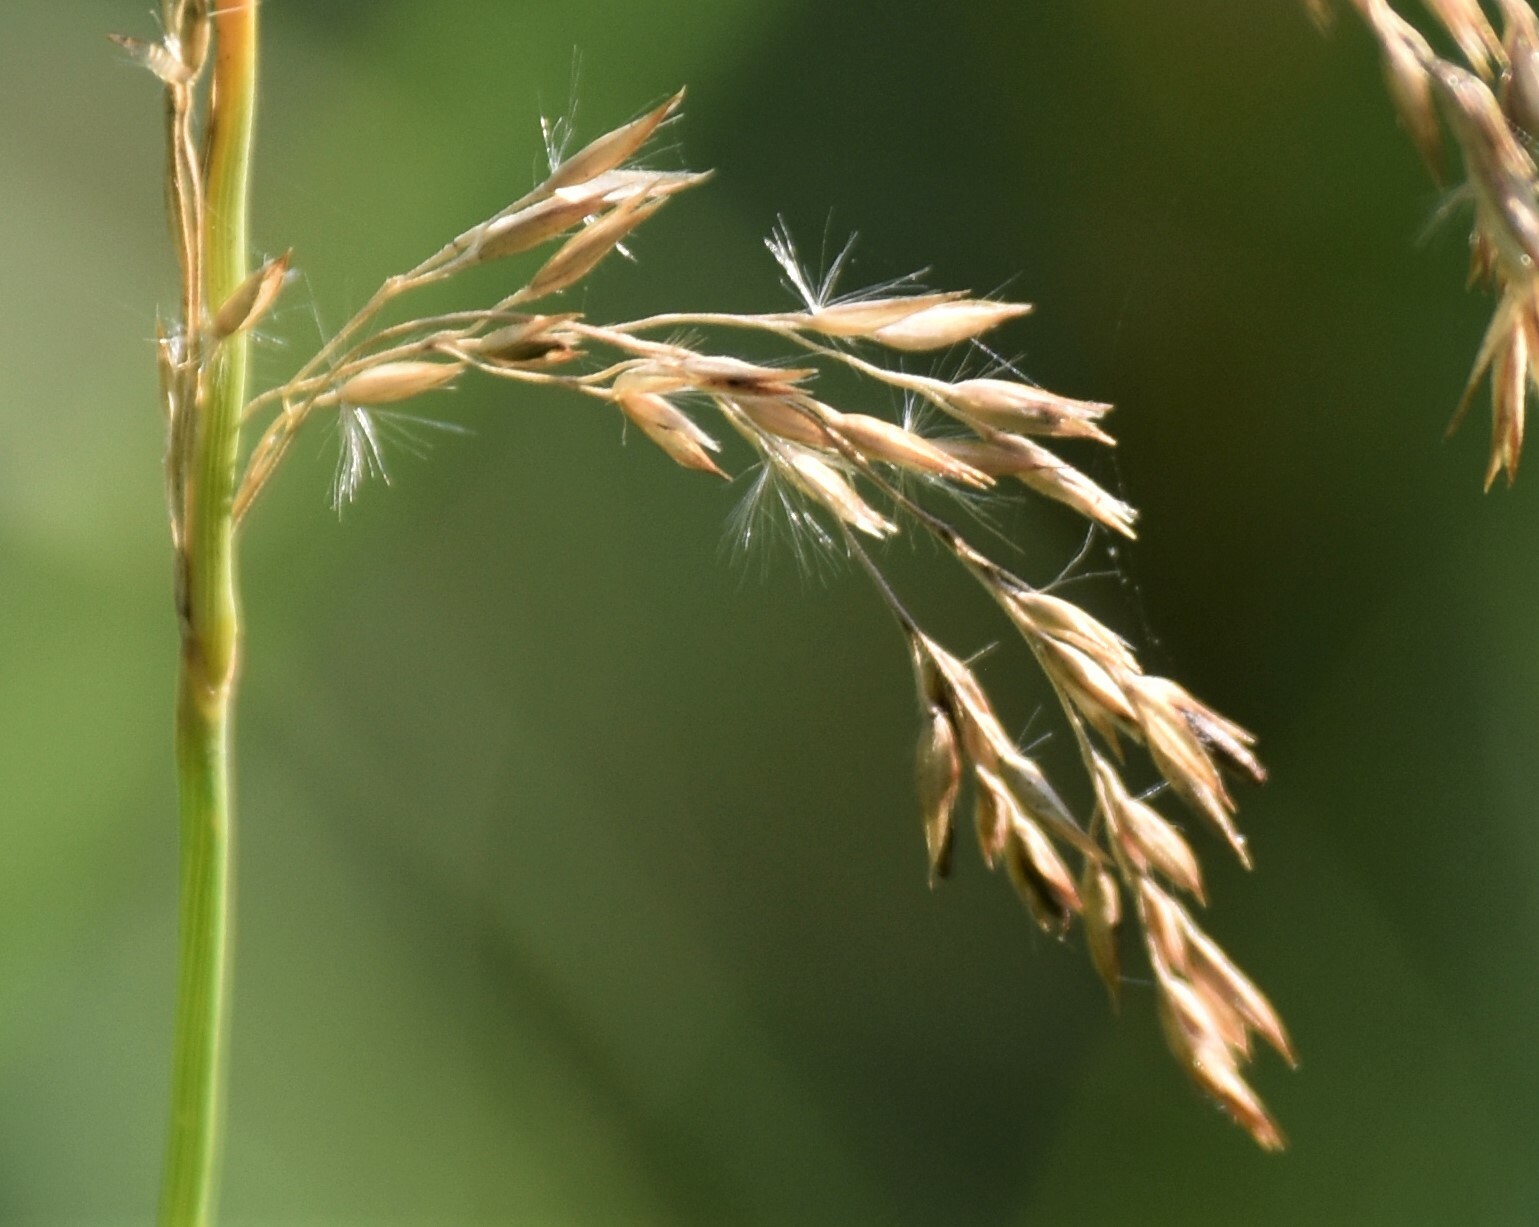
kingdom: Plantae
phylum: Tracheophyta
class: Liliopsida
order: Poales
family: Poaceae
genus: Calamagrostis
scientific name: Calamagrostis canadensis
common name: Canada bluejoint
